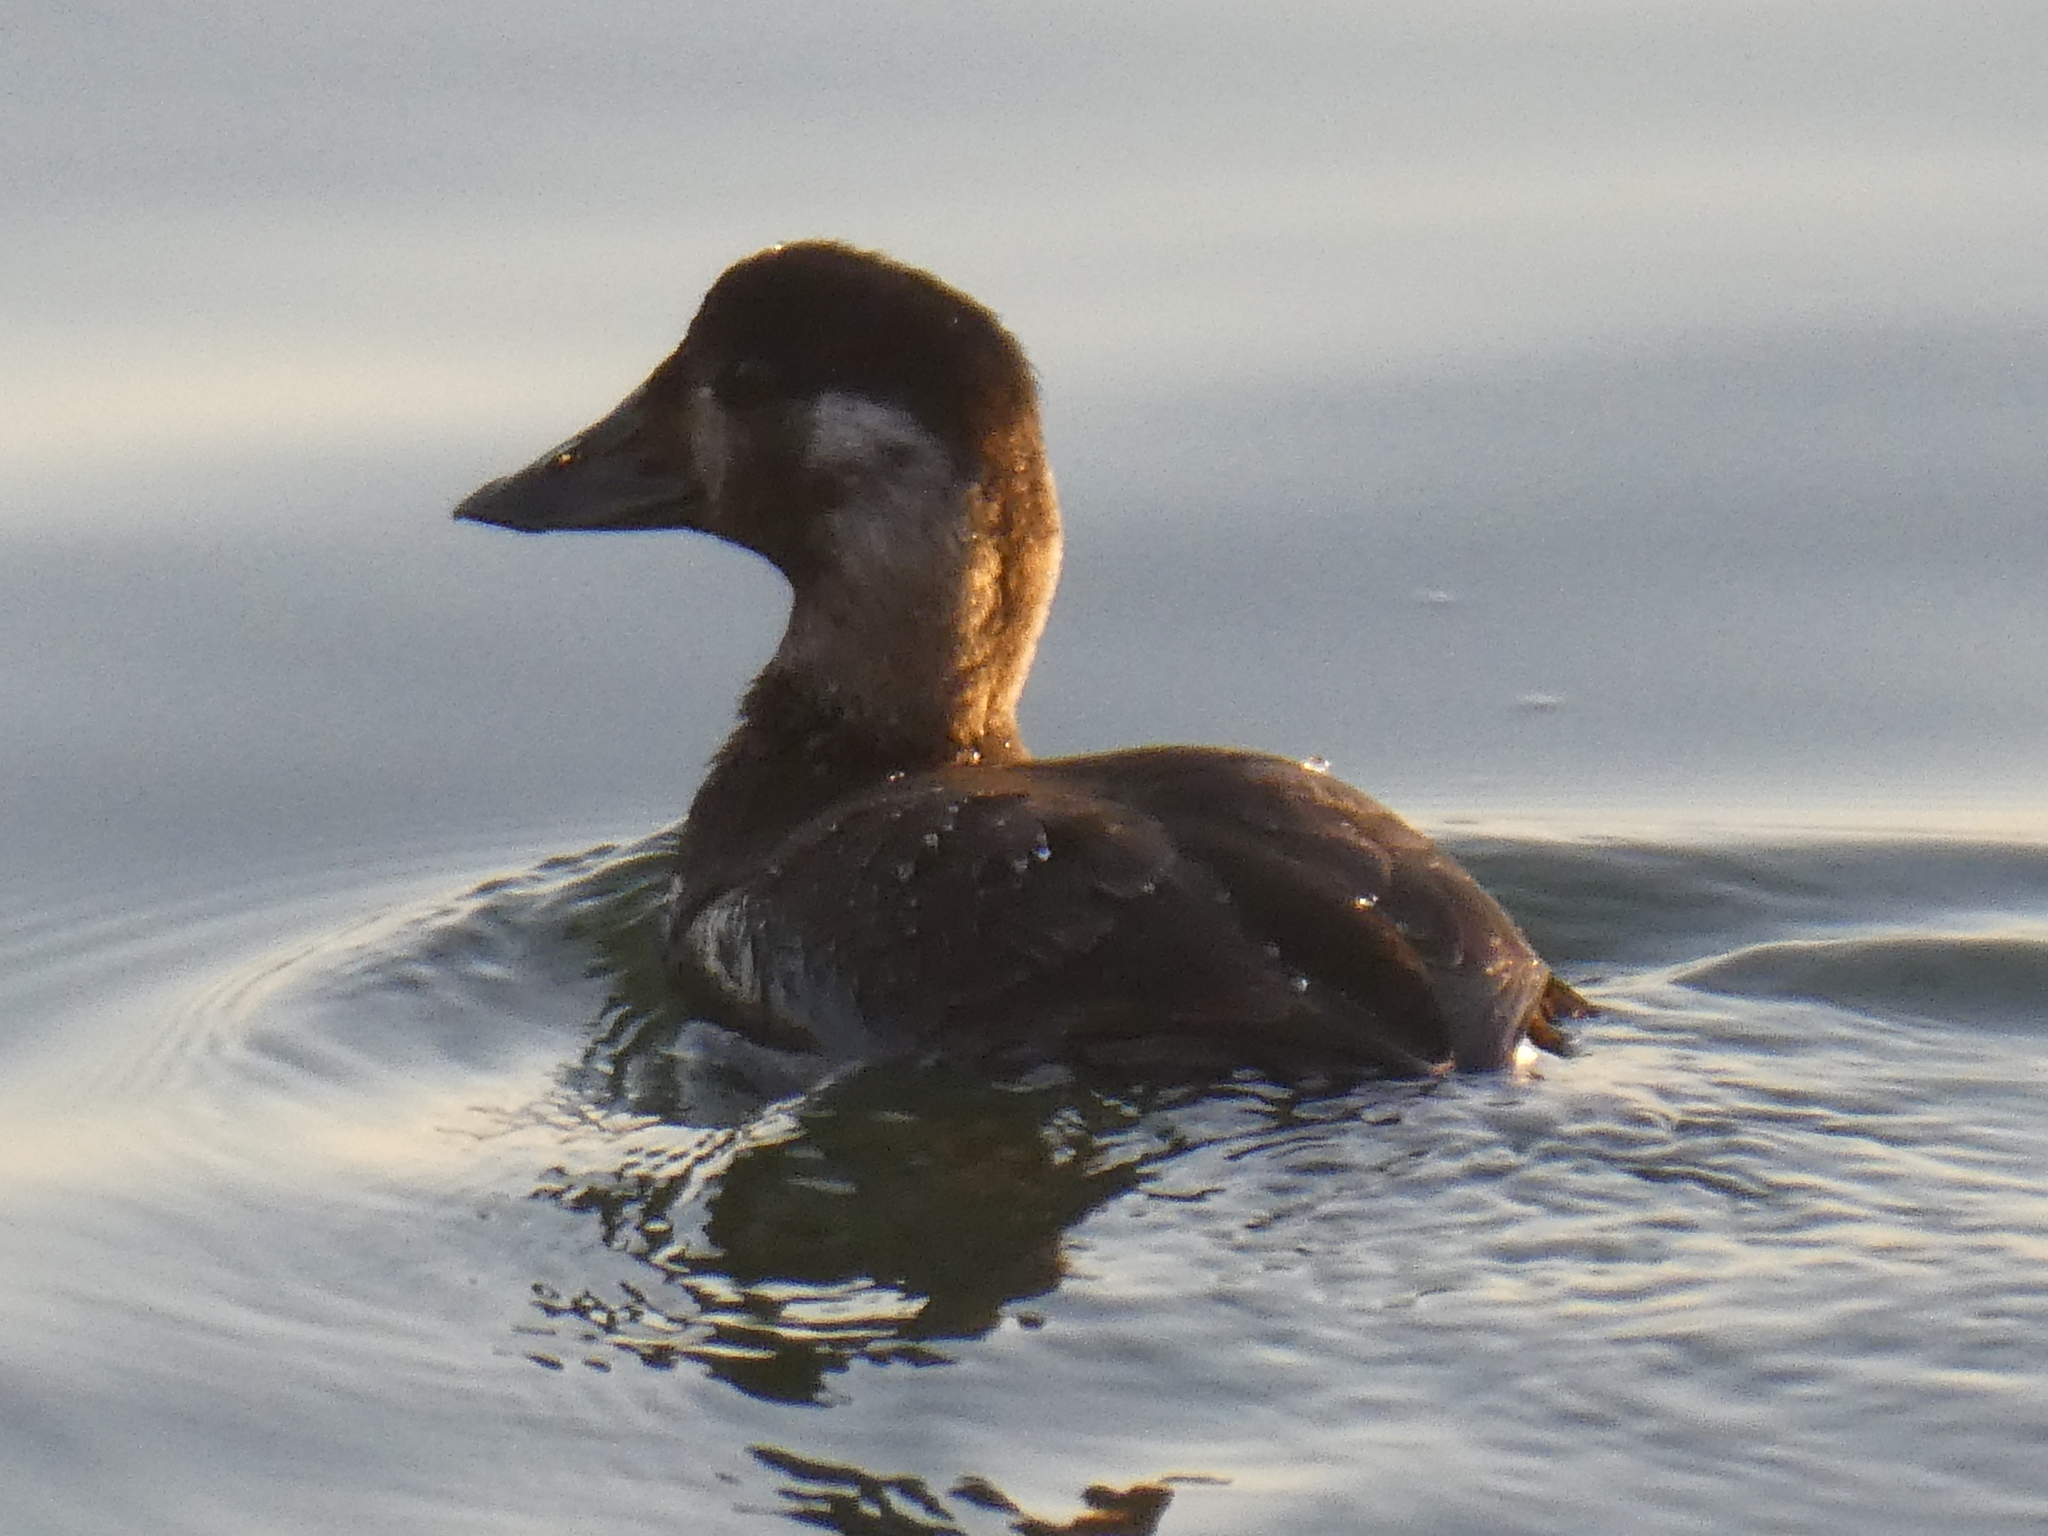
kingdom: Animalia
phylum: Chordata
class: Aves
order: Anseriformes
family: Anatidae
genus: Melanitta
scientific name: Melanitta perspicillata
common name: Surf scoter
